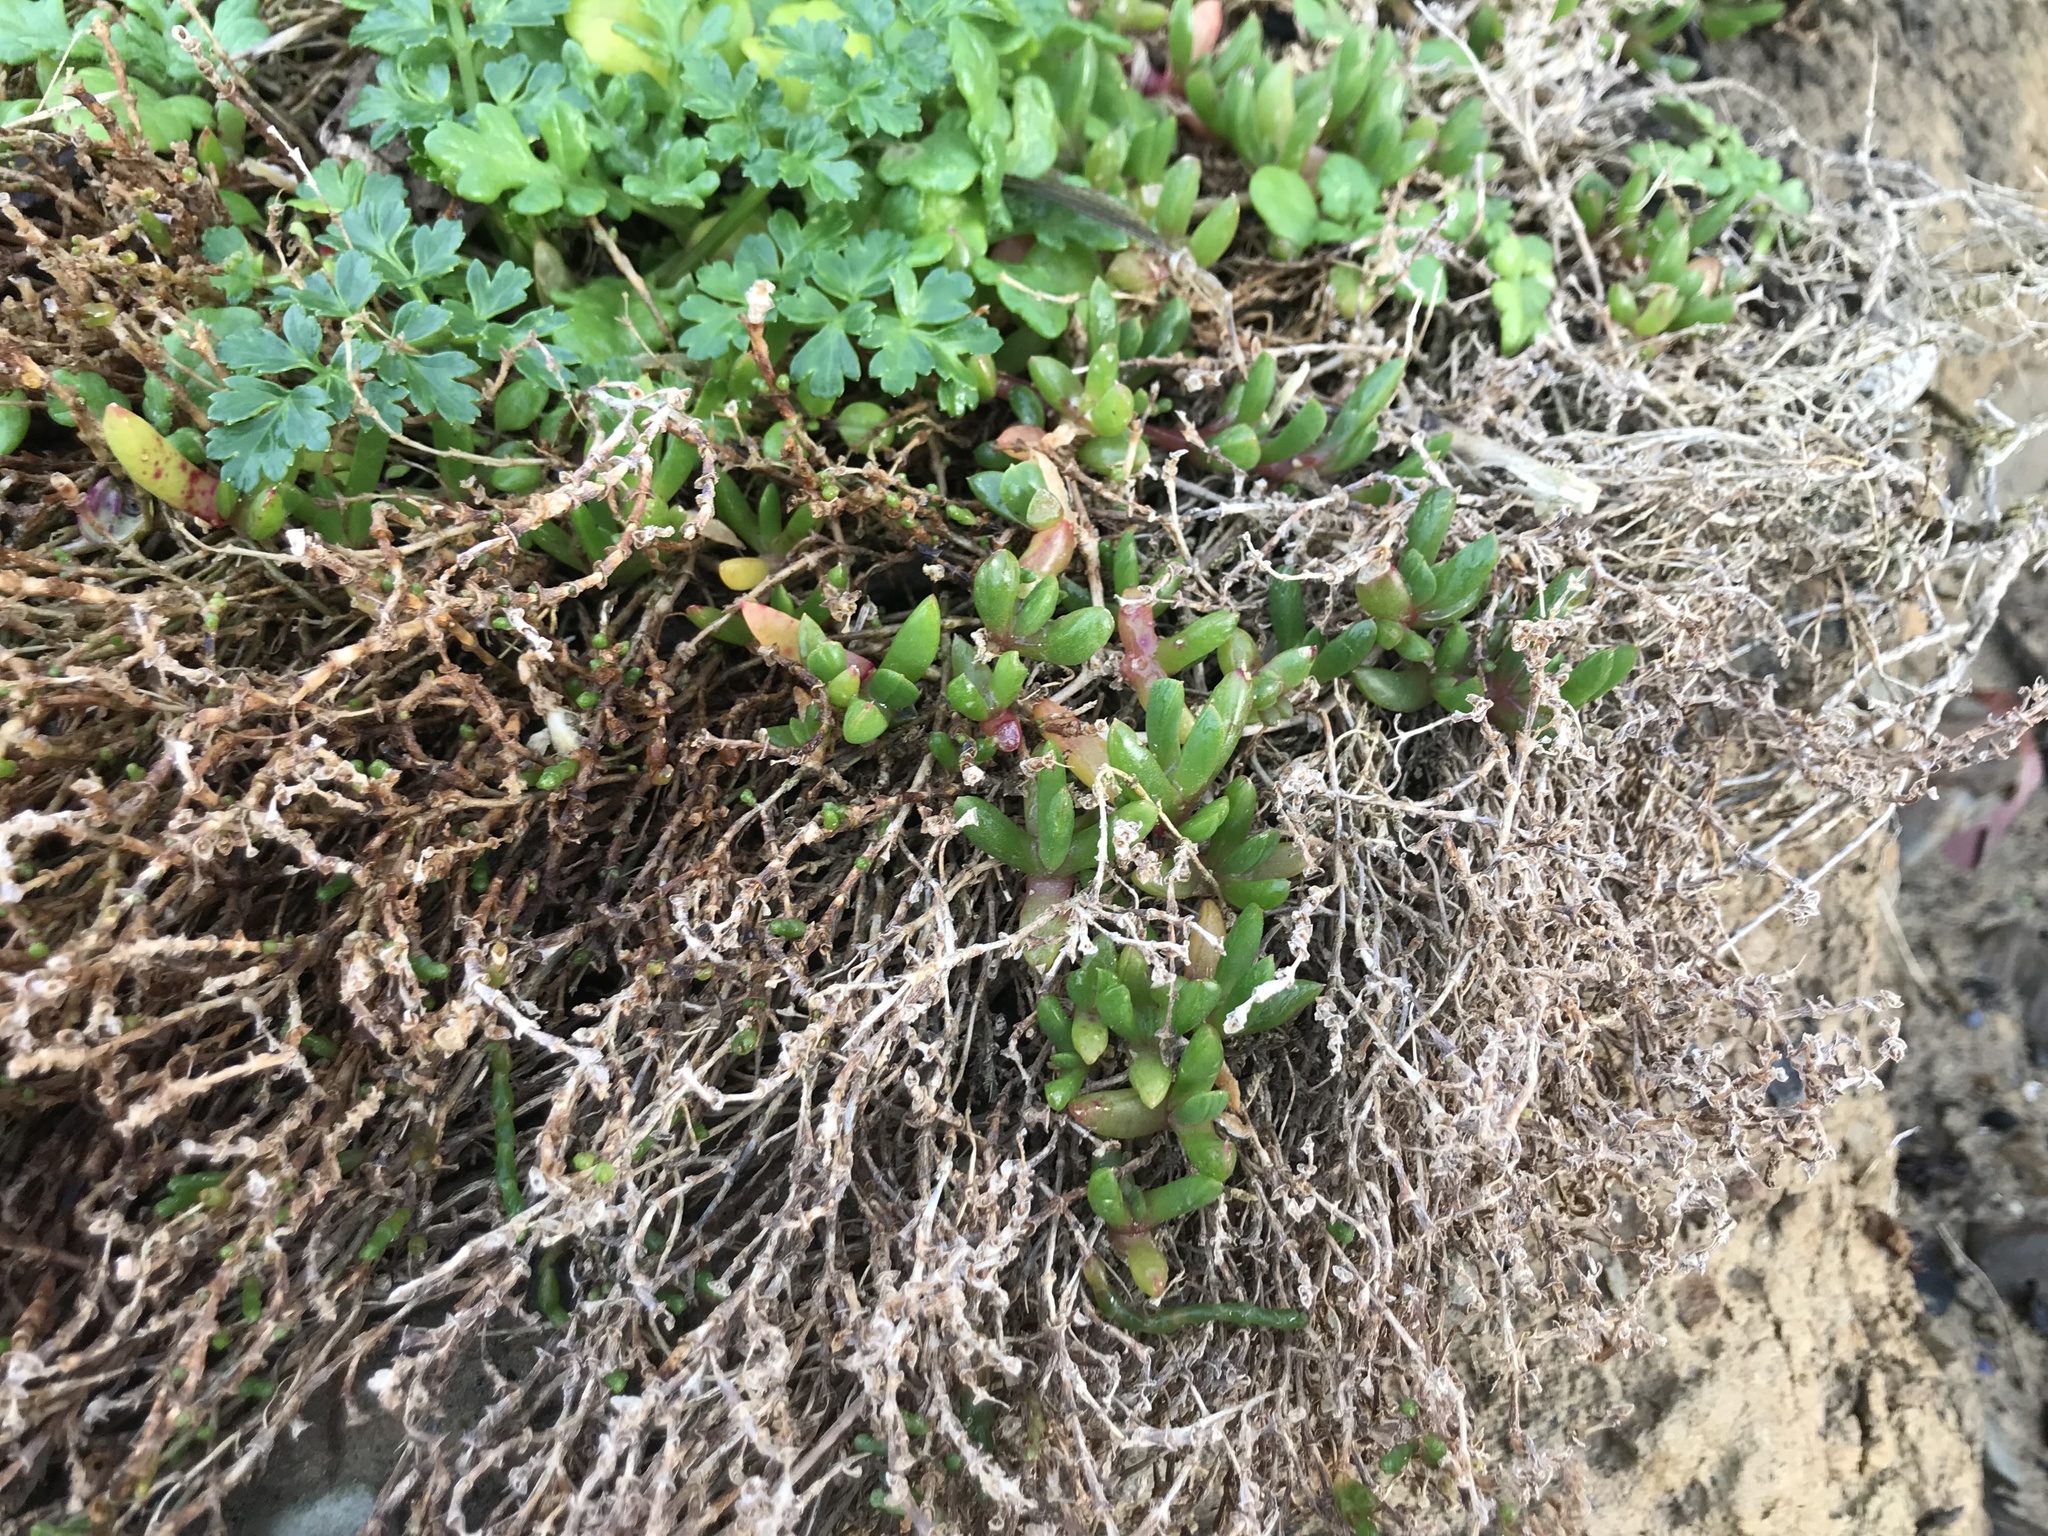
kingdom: Plantae
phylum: Tracheophyta
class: Magnoliopsida
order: Caryophyllales
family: Aizoaceae
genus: Disphyma
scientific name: Disphyma australe
